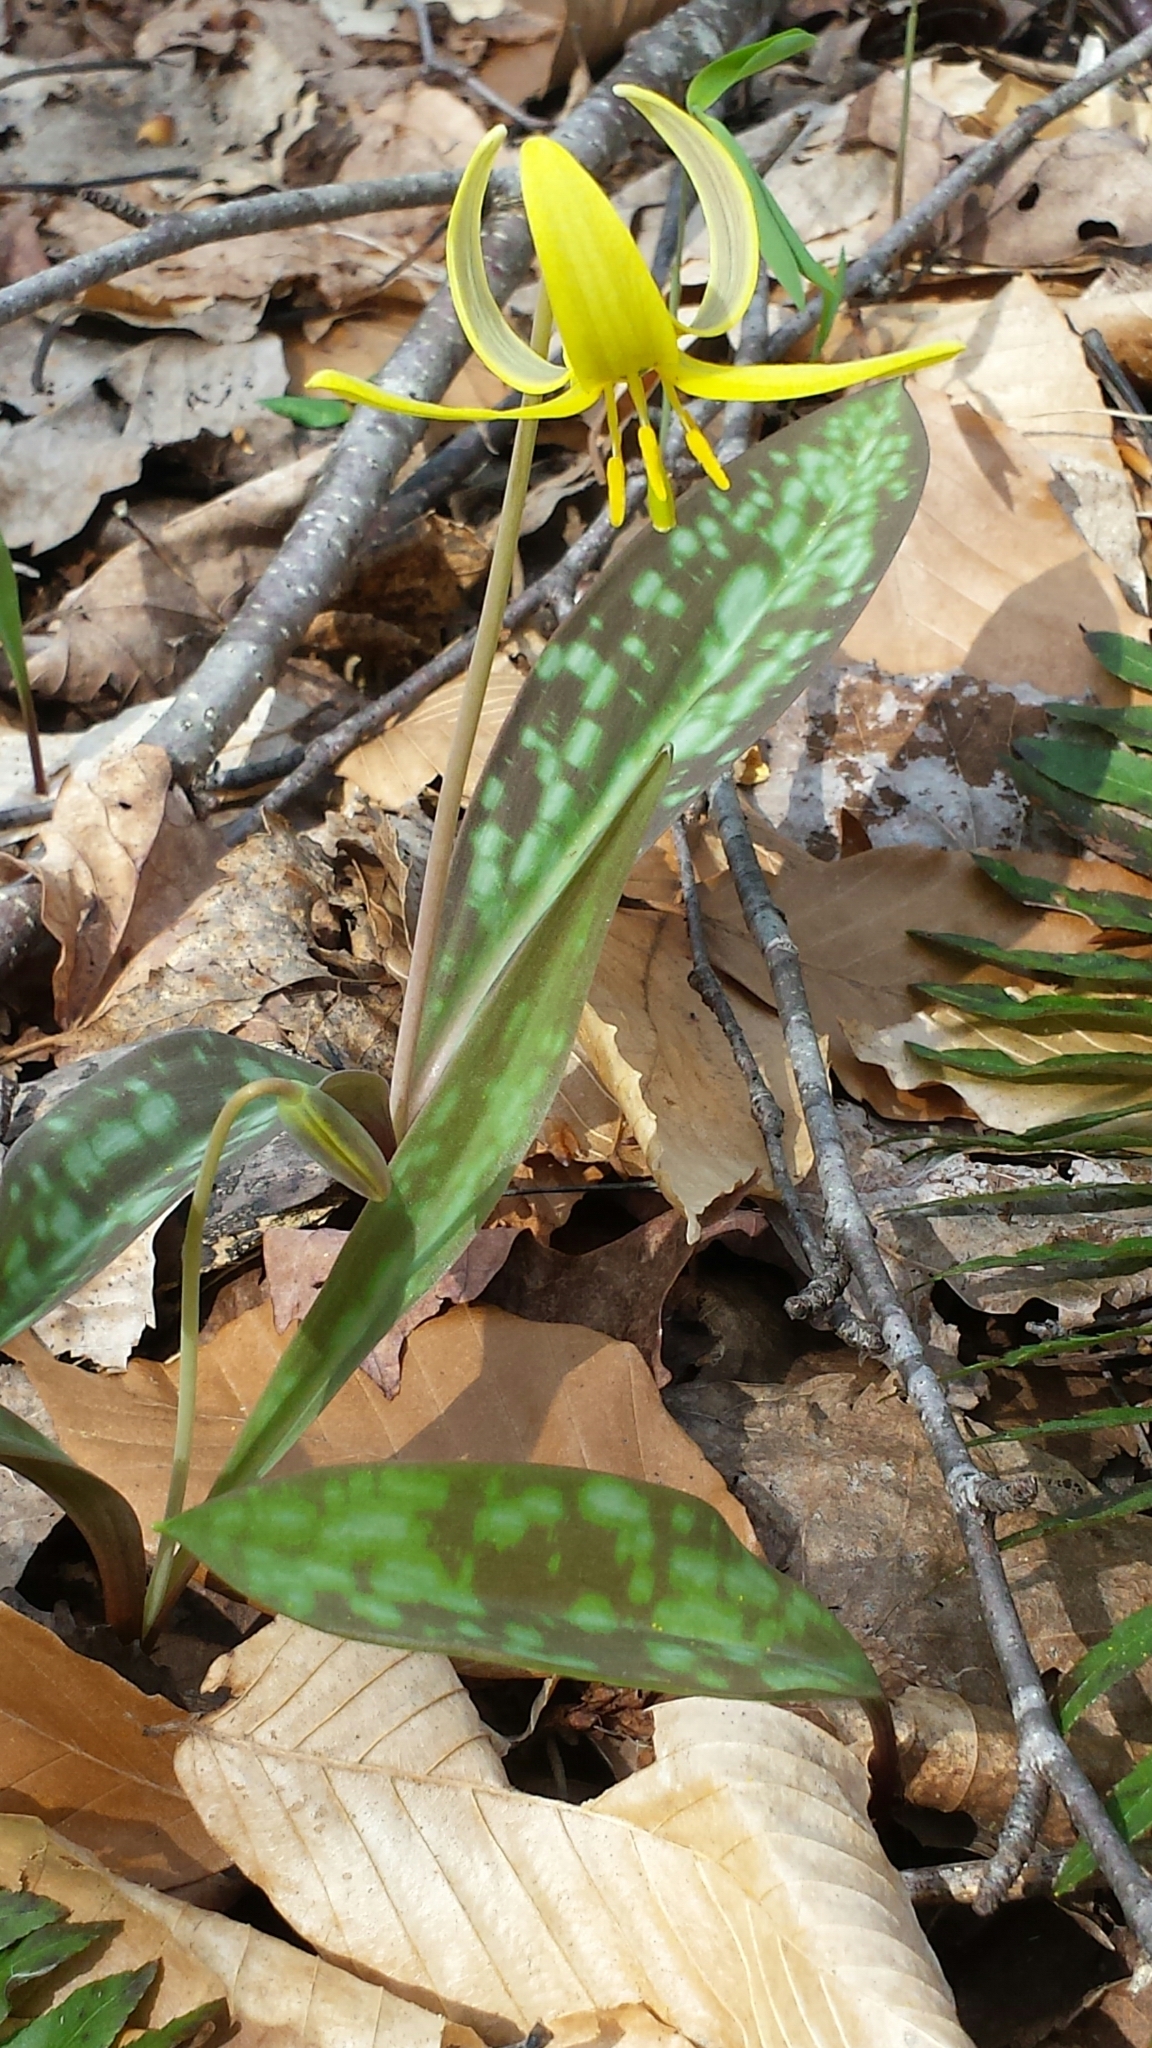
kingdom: Plantae
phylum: Tracheophyta
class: Liliopsida
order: Liliales
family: Liliaceae
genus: Erythronium
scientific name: Erythronium americanum
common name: Yellow adder's-tongue
